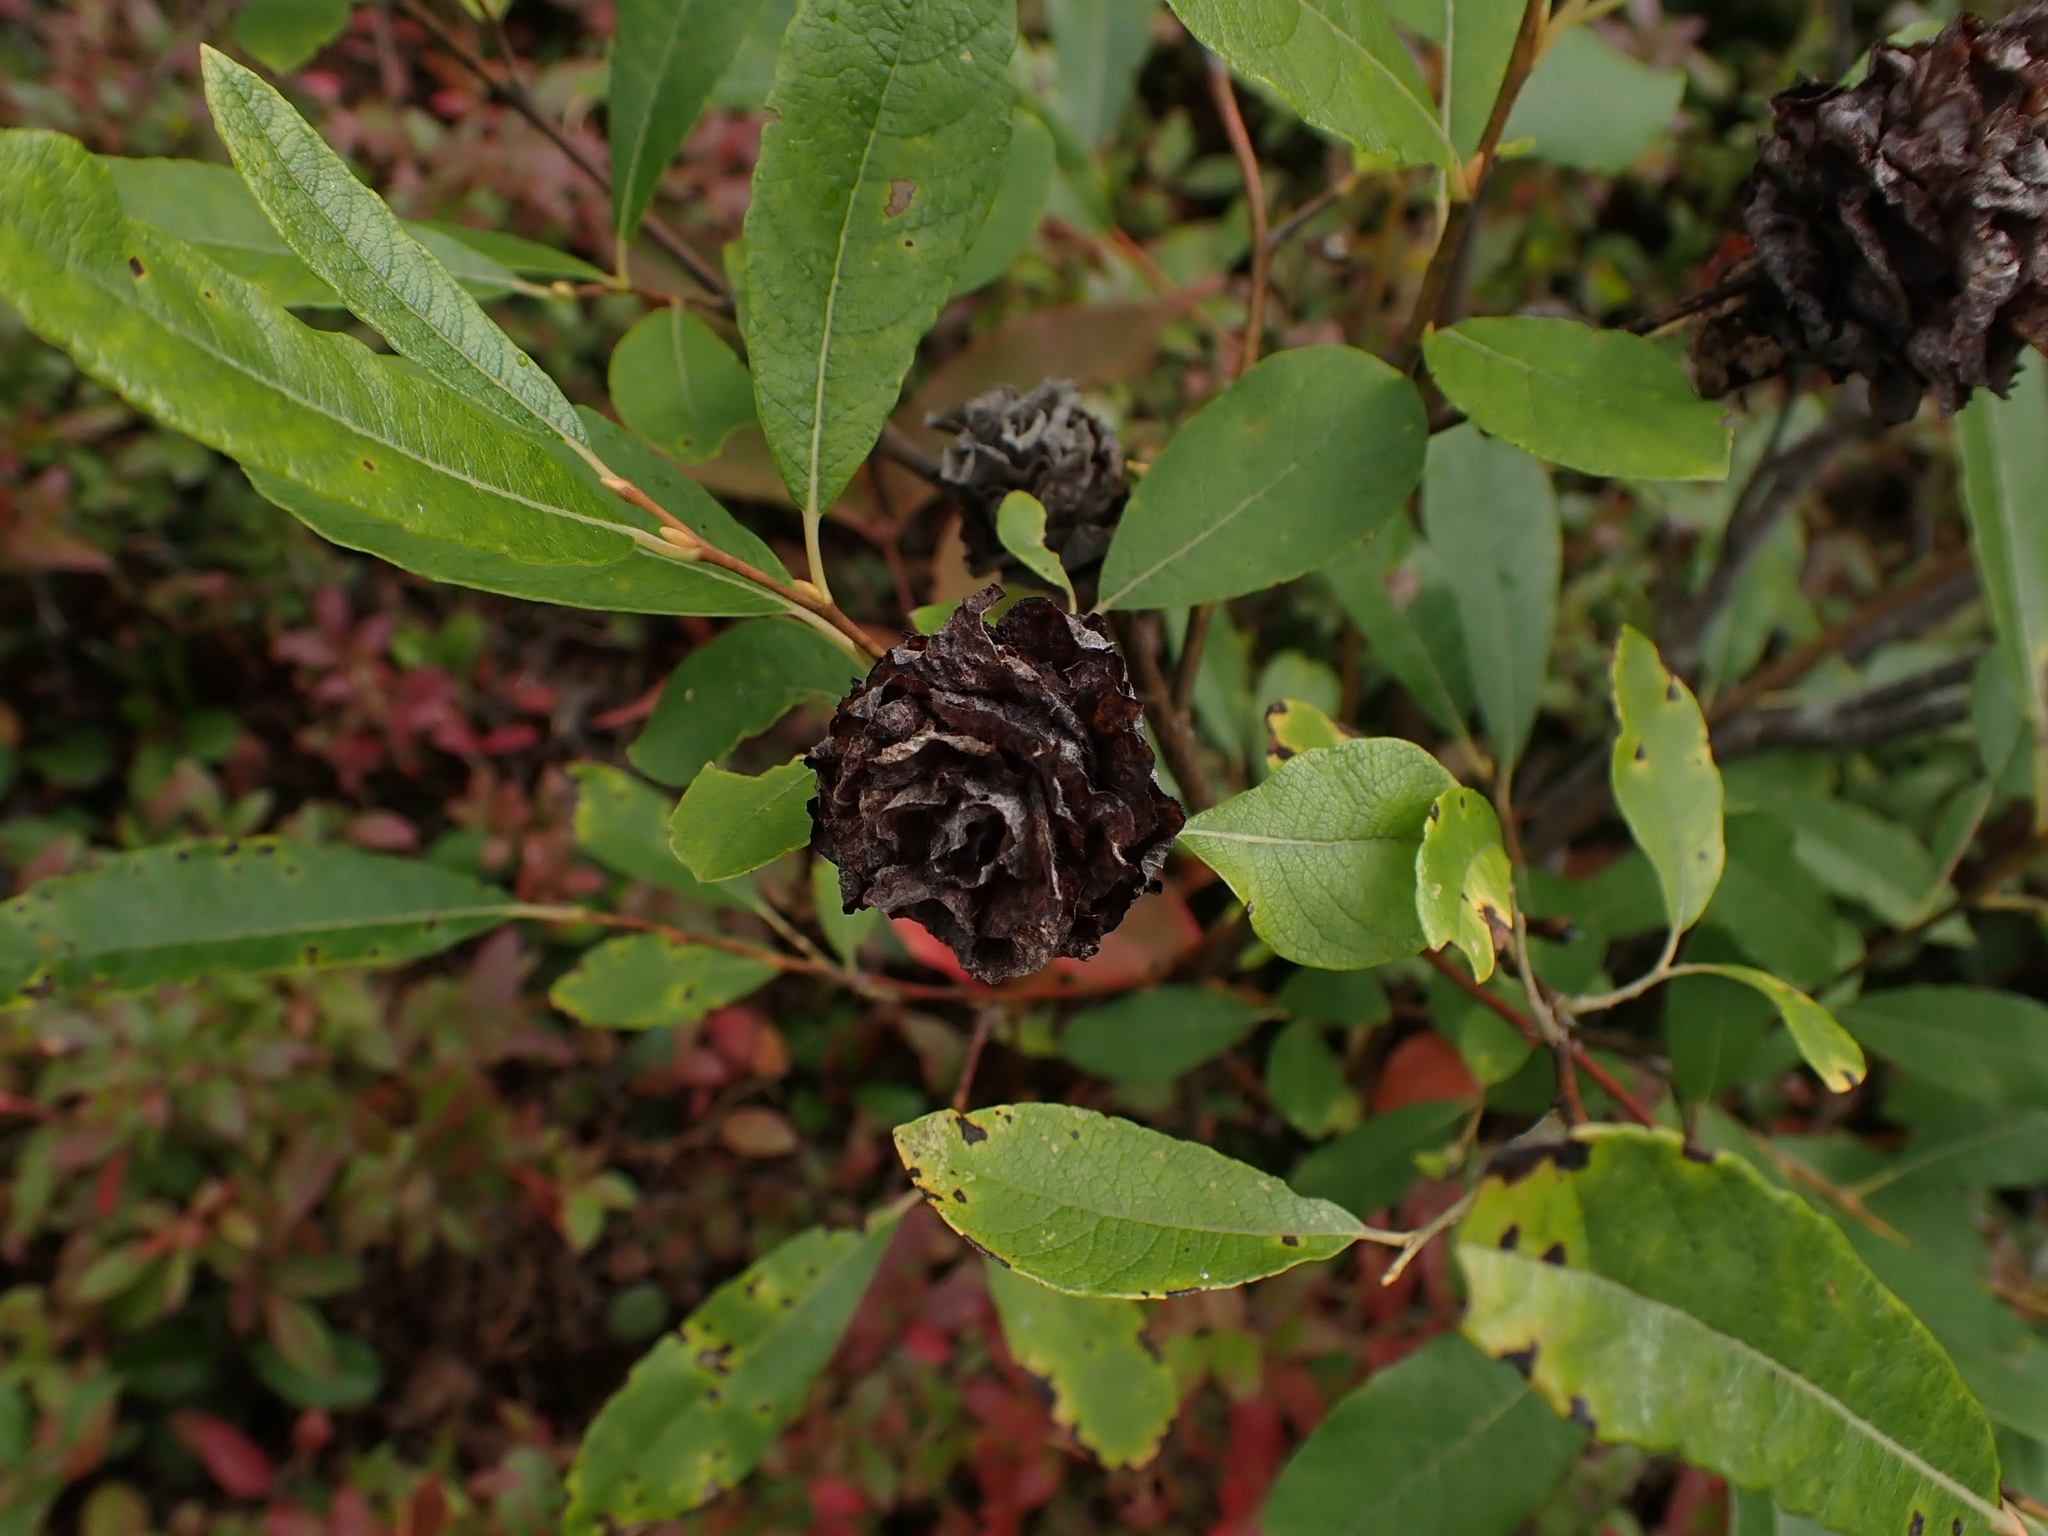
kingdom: Animalia
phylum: Arthropoda
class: Insecta
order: Diptera
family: Cecidomyiidae
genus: Rabdophaga
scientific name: Rabdophaga salicisbrassicoides
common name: Willow cabbagegall midge
